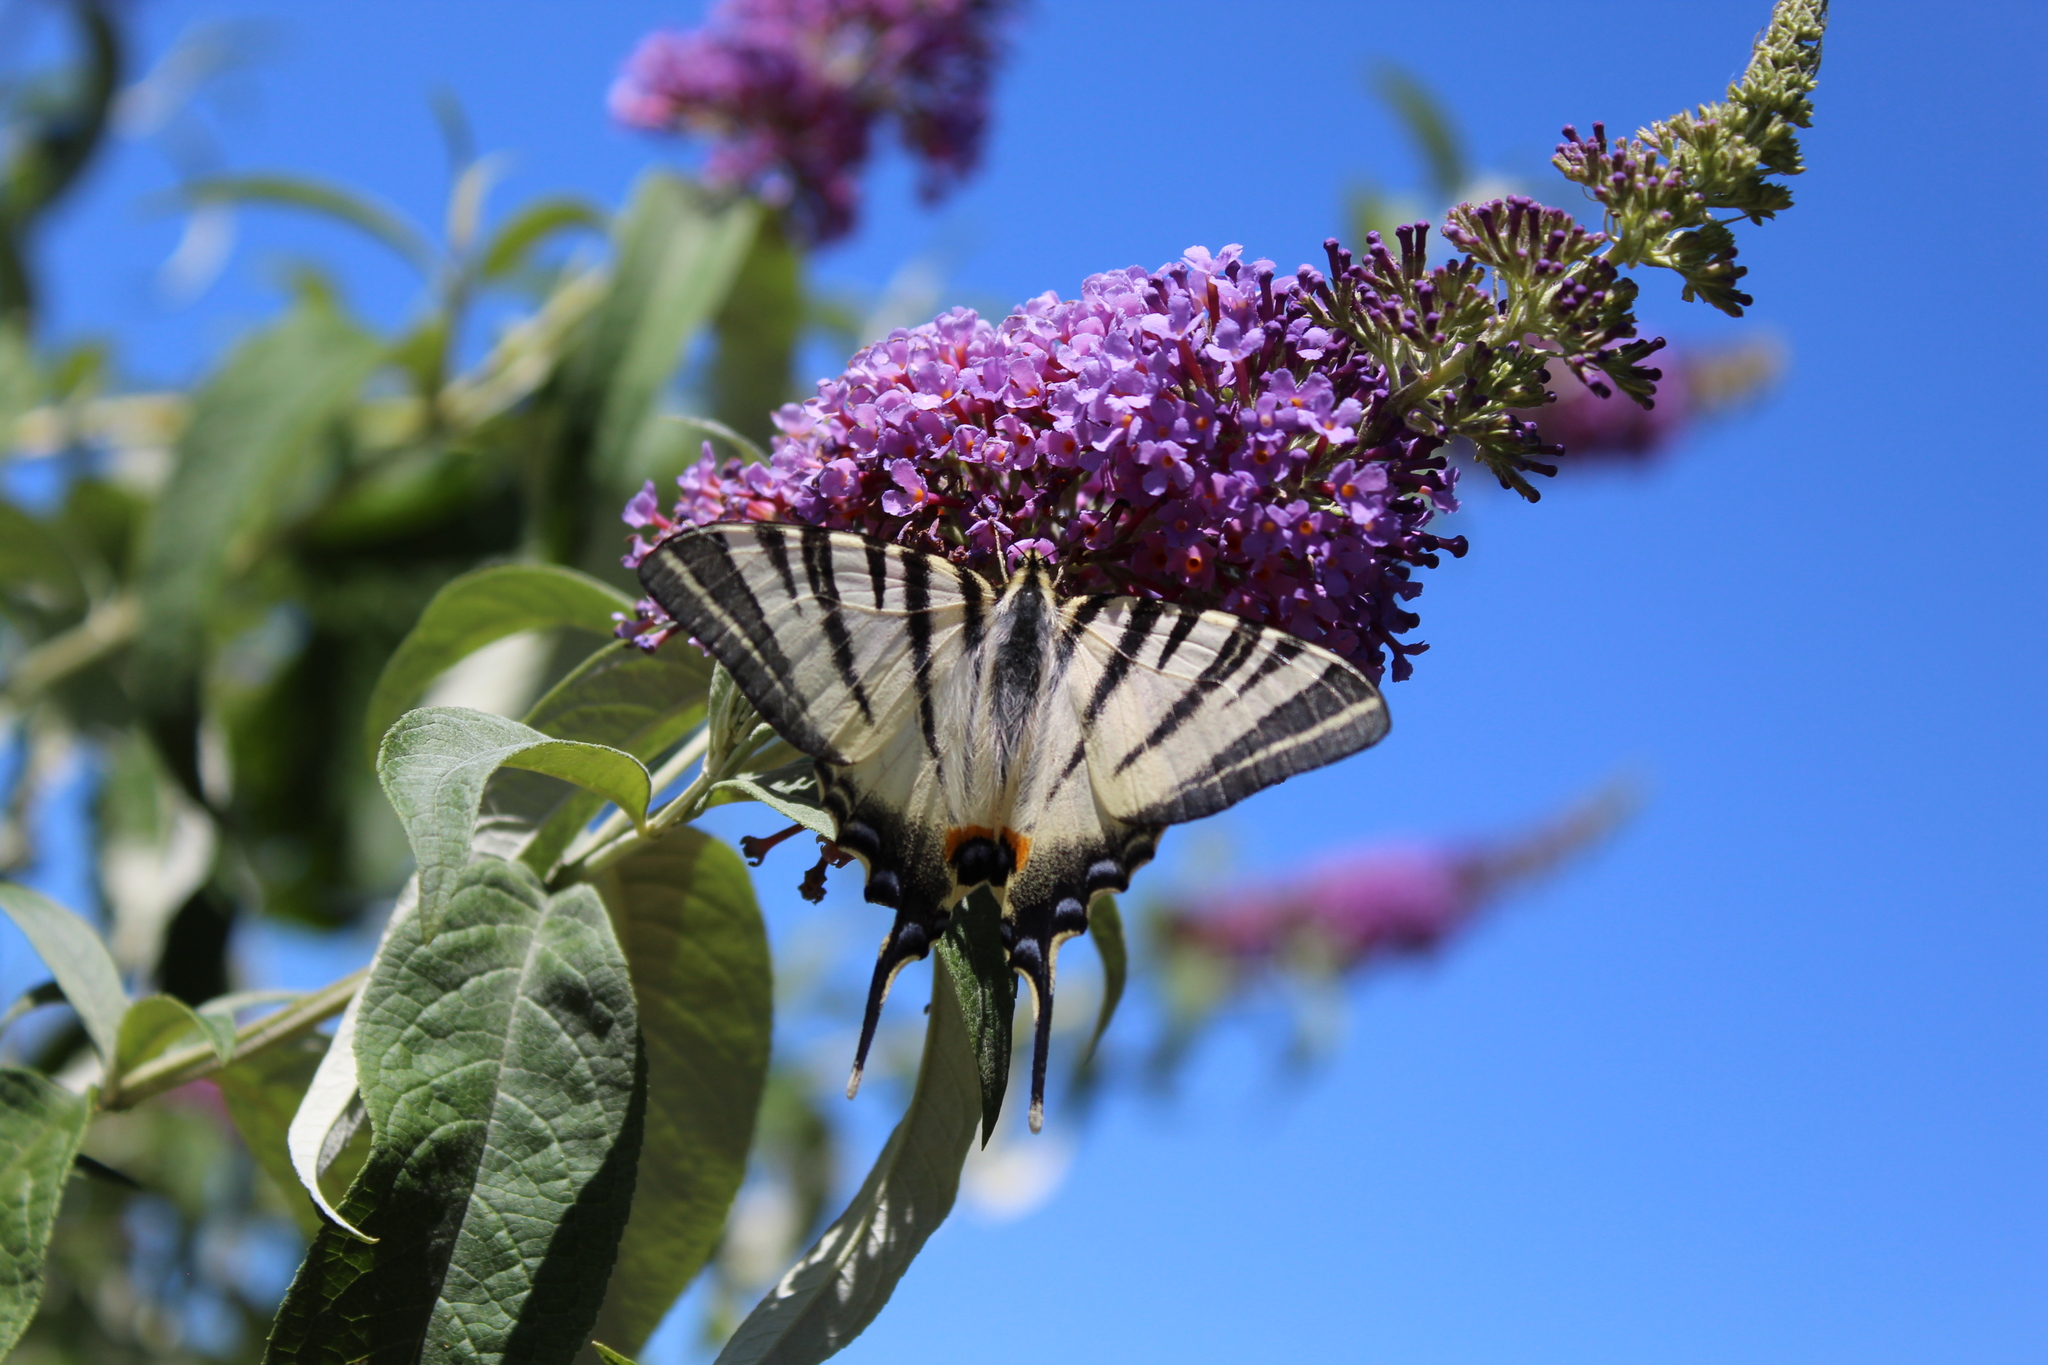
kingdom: Animalia
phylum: Arthropoda
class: Insecta
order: Lepidoptera
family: Papilionidae
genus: Iphiclides
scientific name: Iphiclides podalirius
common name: Scarce swallowtail
